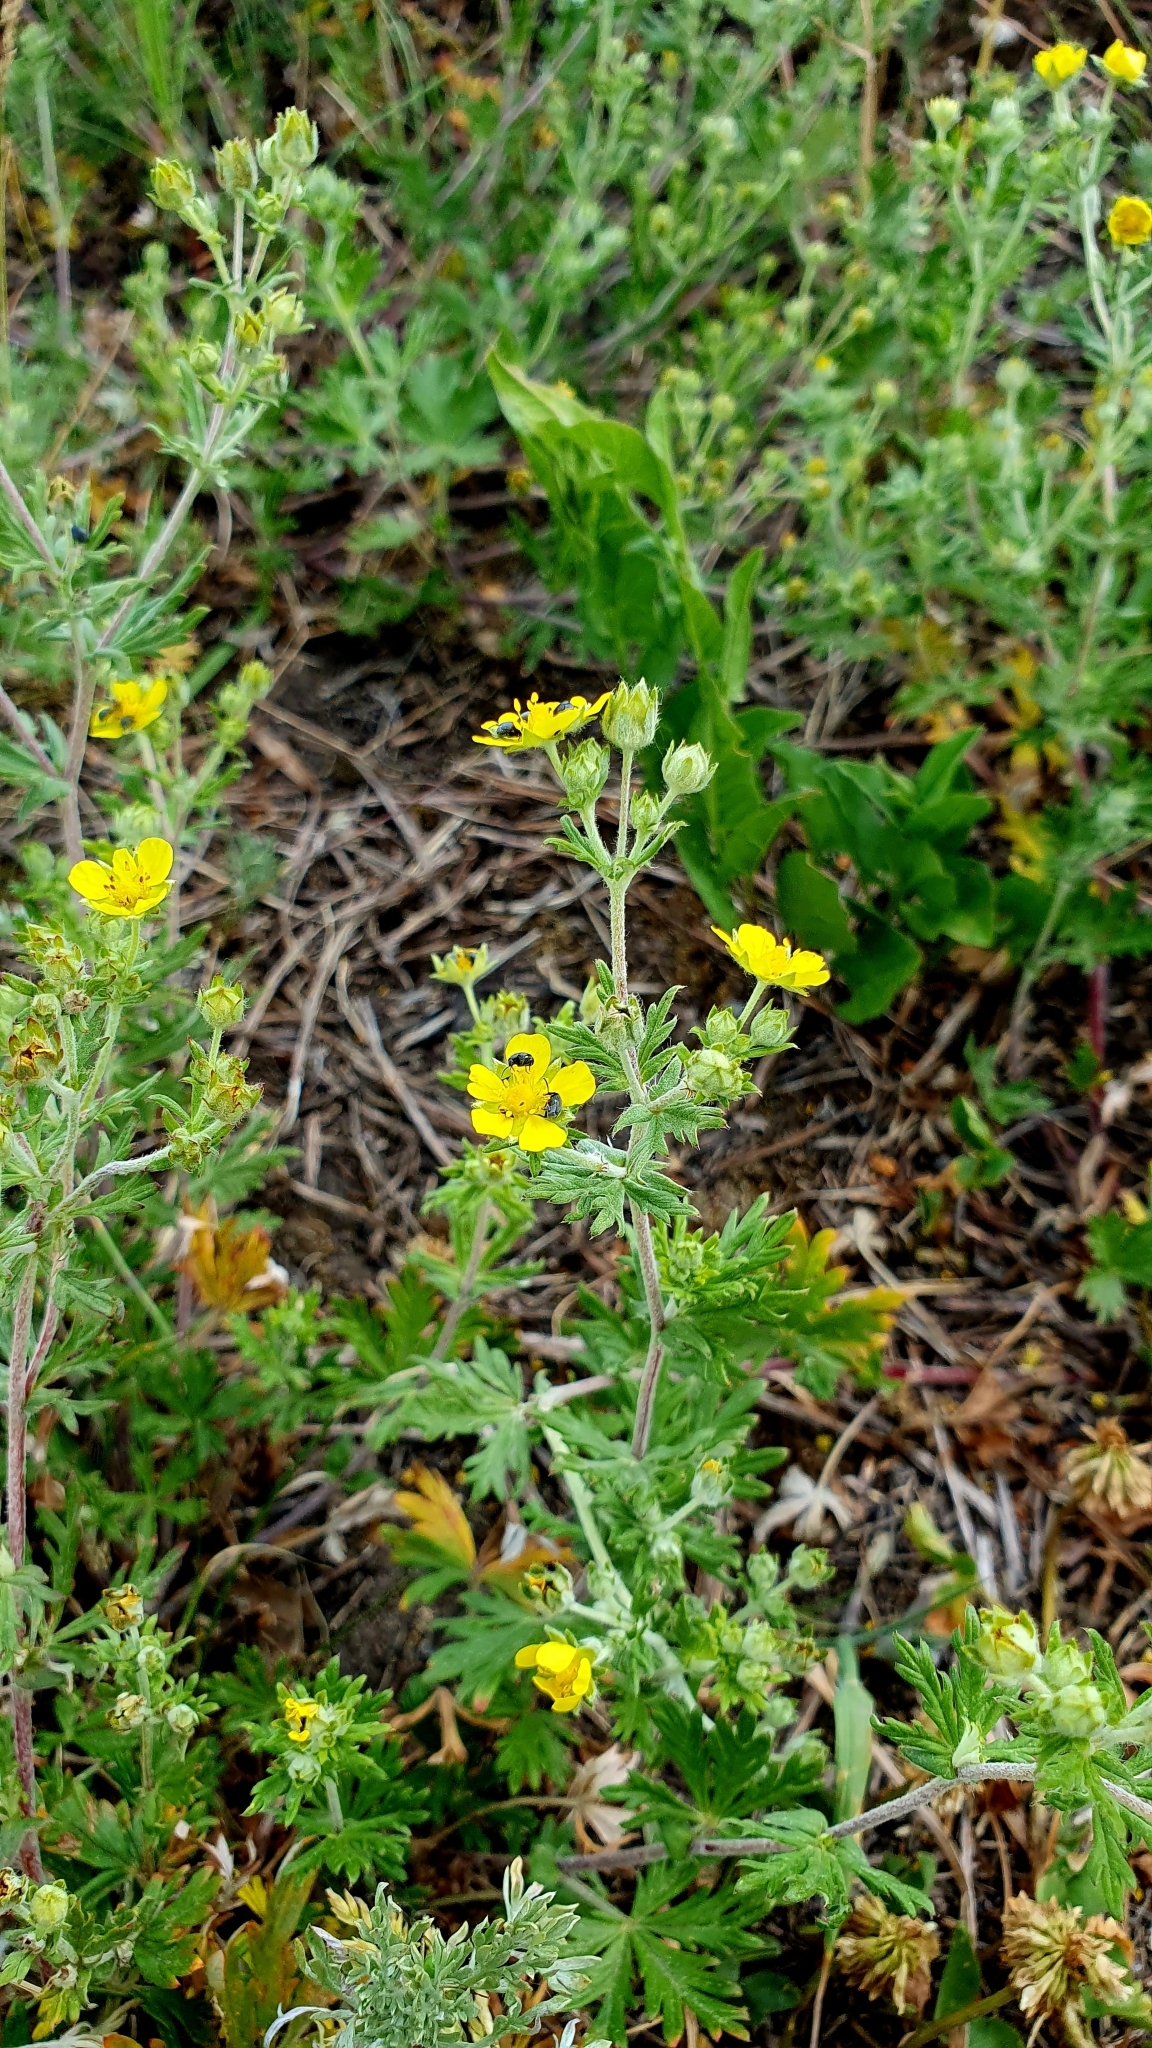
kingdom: Plantae
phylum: Tracheophyta
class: Magnoliopsida
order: Rosales
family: Rosaceae
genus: Potentilla
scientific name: Potentilla argentea
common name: Hoary cinquefoil
